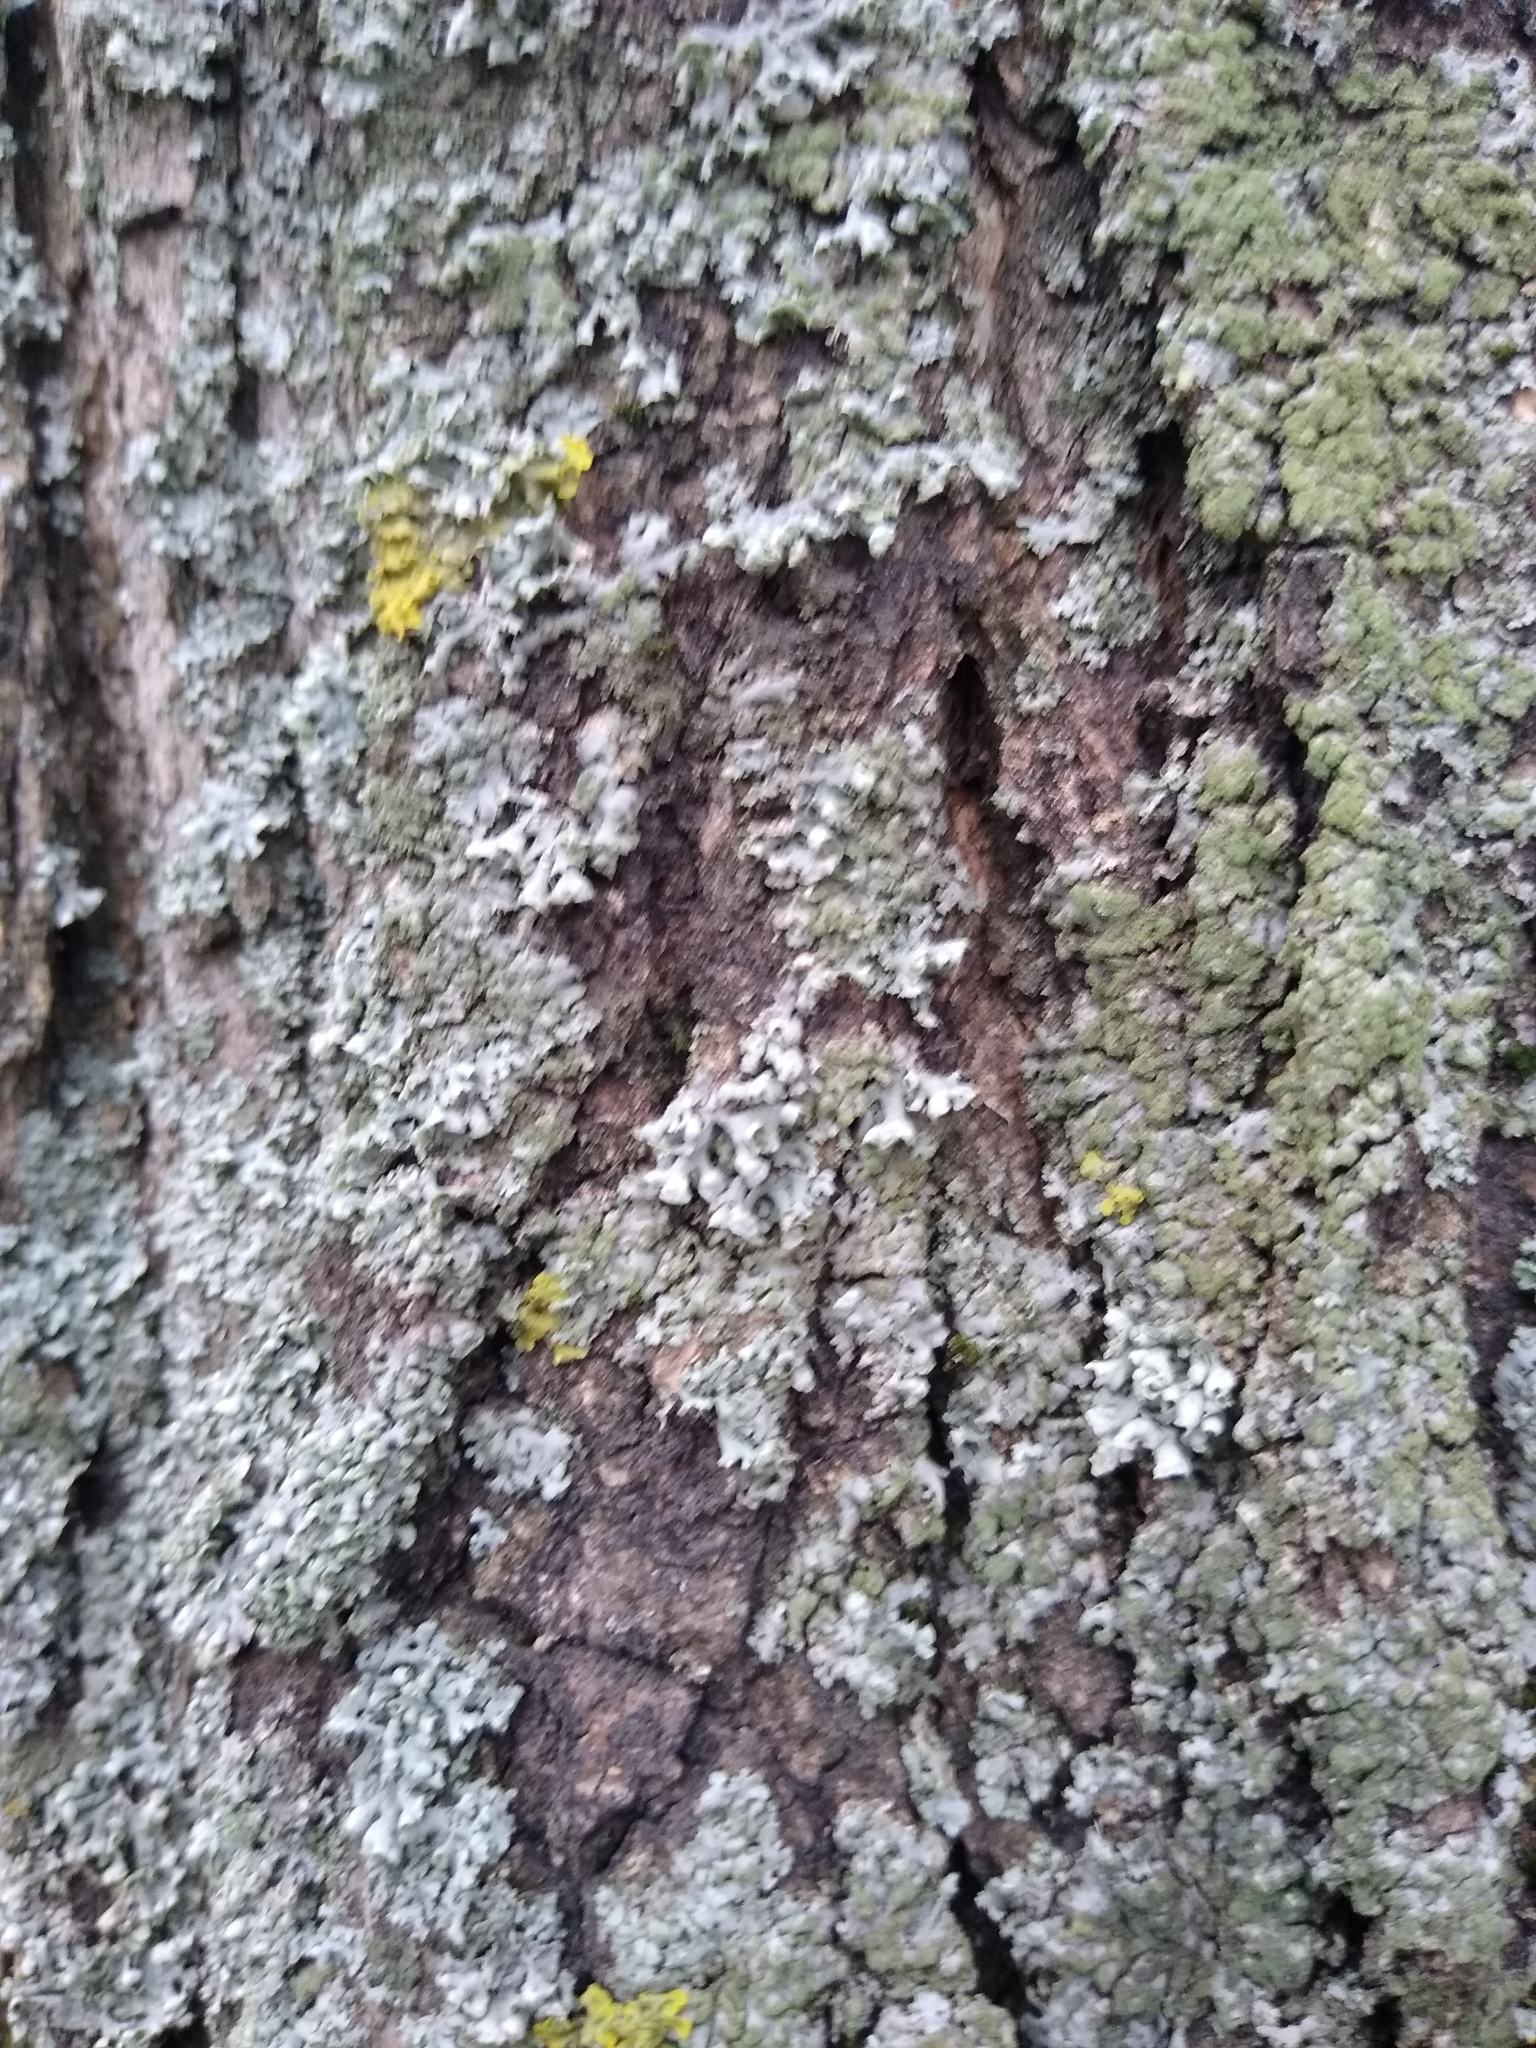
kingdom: Fungi
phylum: Ascomycota
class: Lecanoromycetes
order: Caliciales
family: Physciaceae
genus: Physcia
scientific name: Physcia adscendens
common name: Hooded rosette lichen
